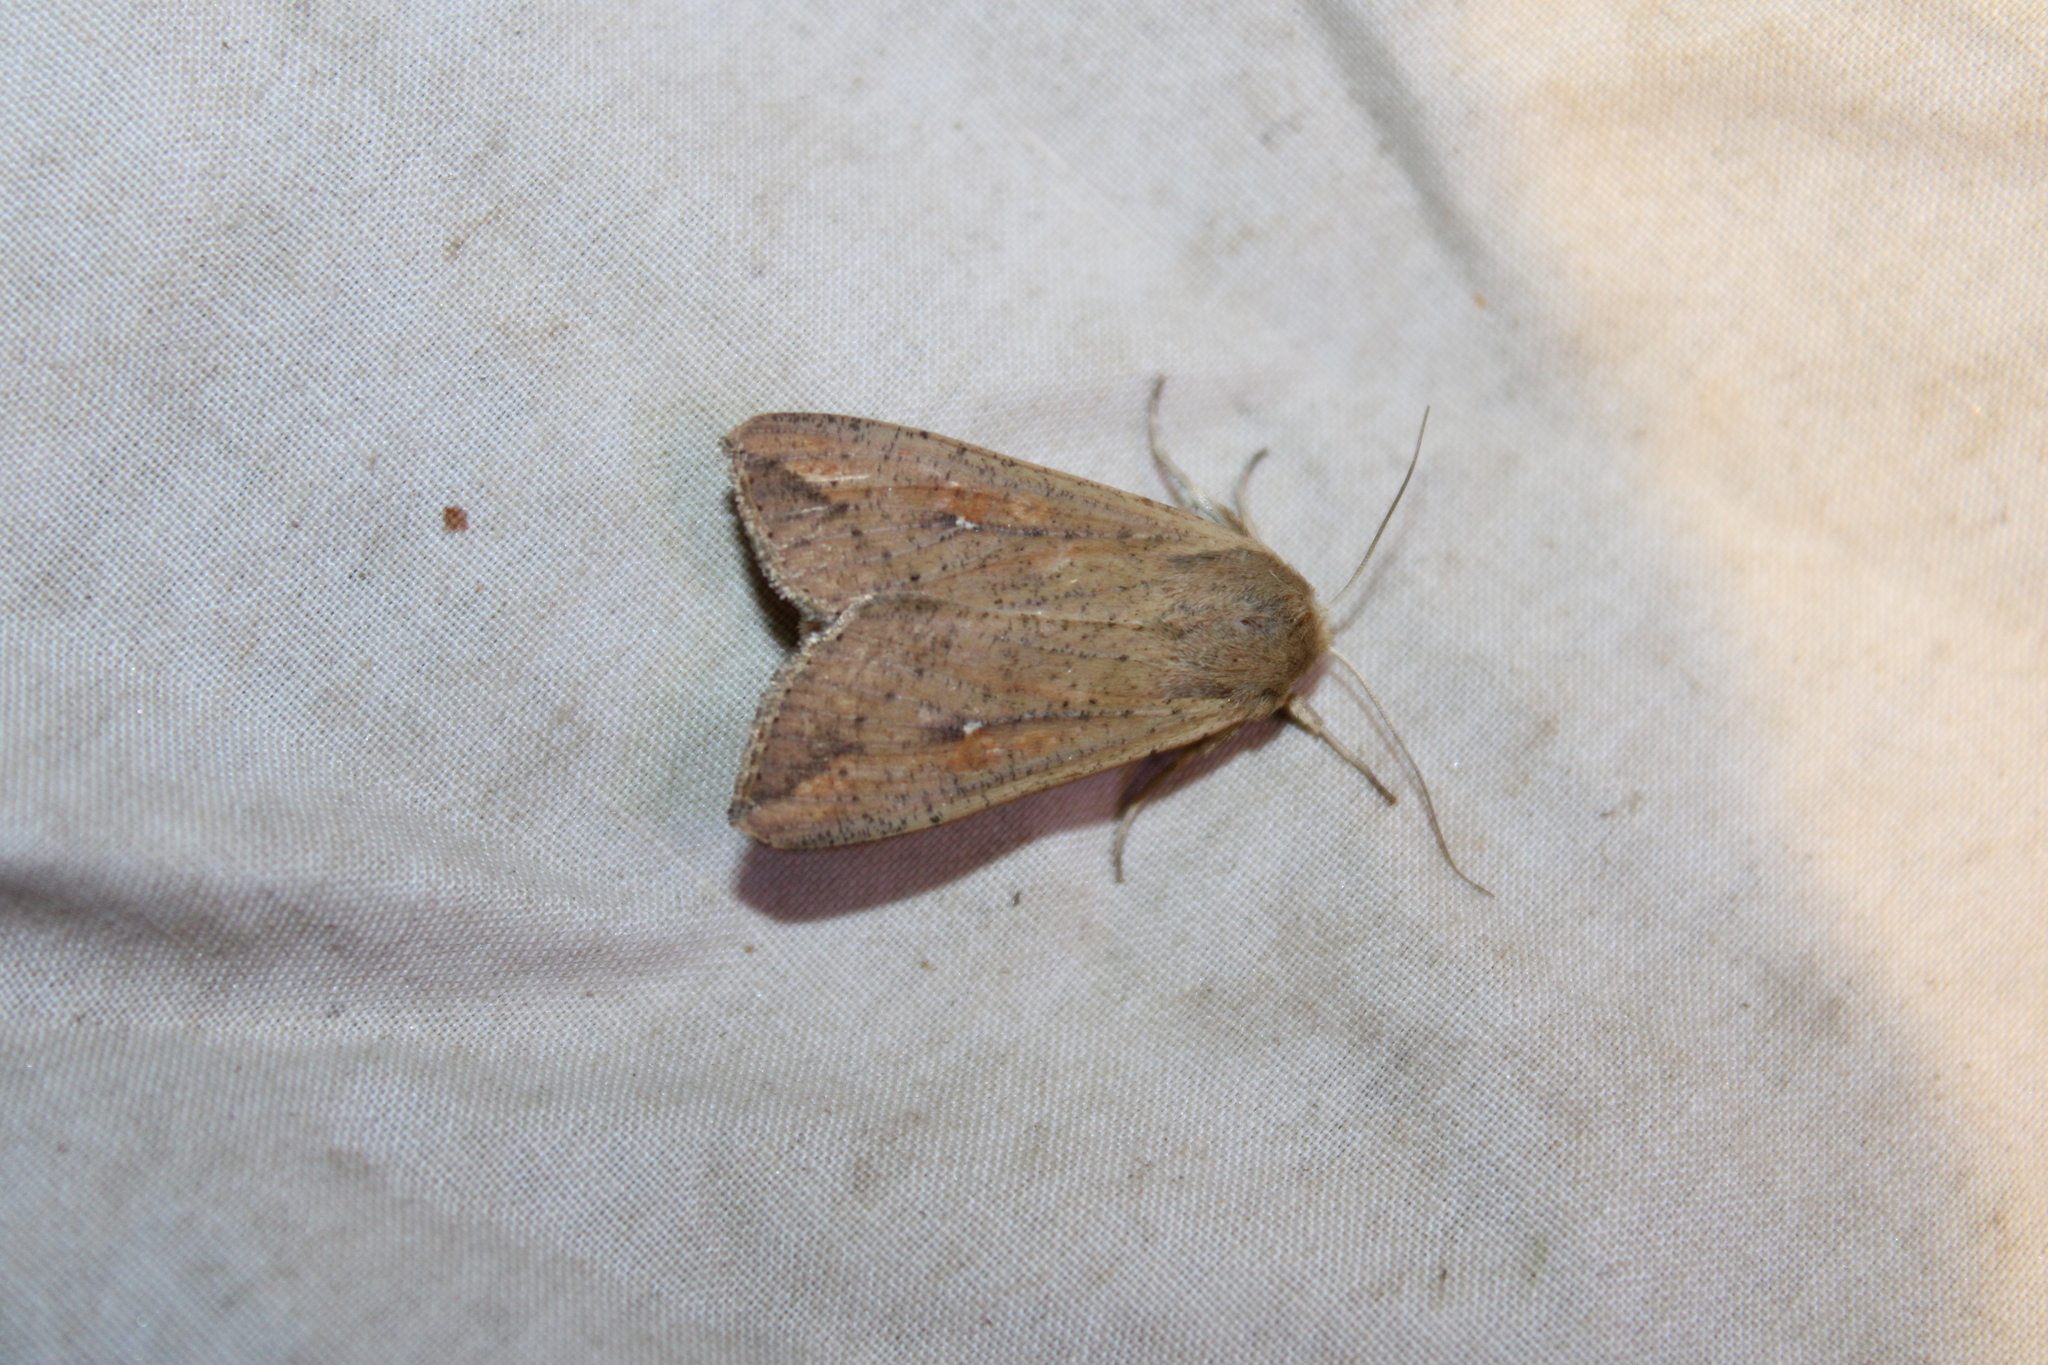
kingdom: Animalia
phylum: Arthropoda
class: Insecta
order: Lepidoptera
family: Noctuidae
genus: Mythimna
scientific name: Mythimna unipuncta
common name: White-speck
